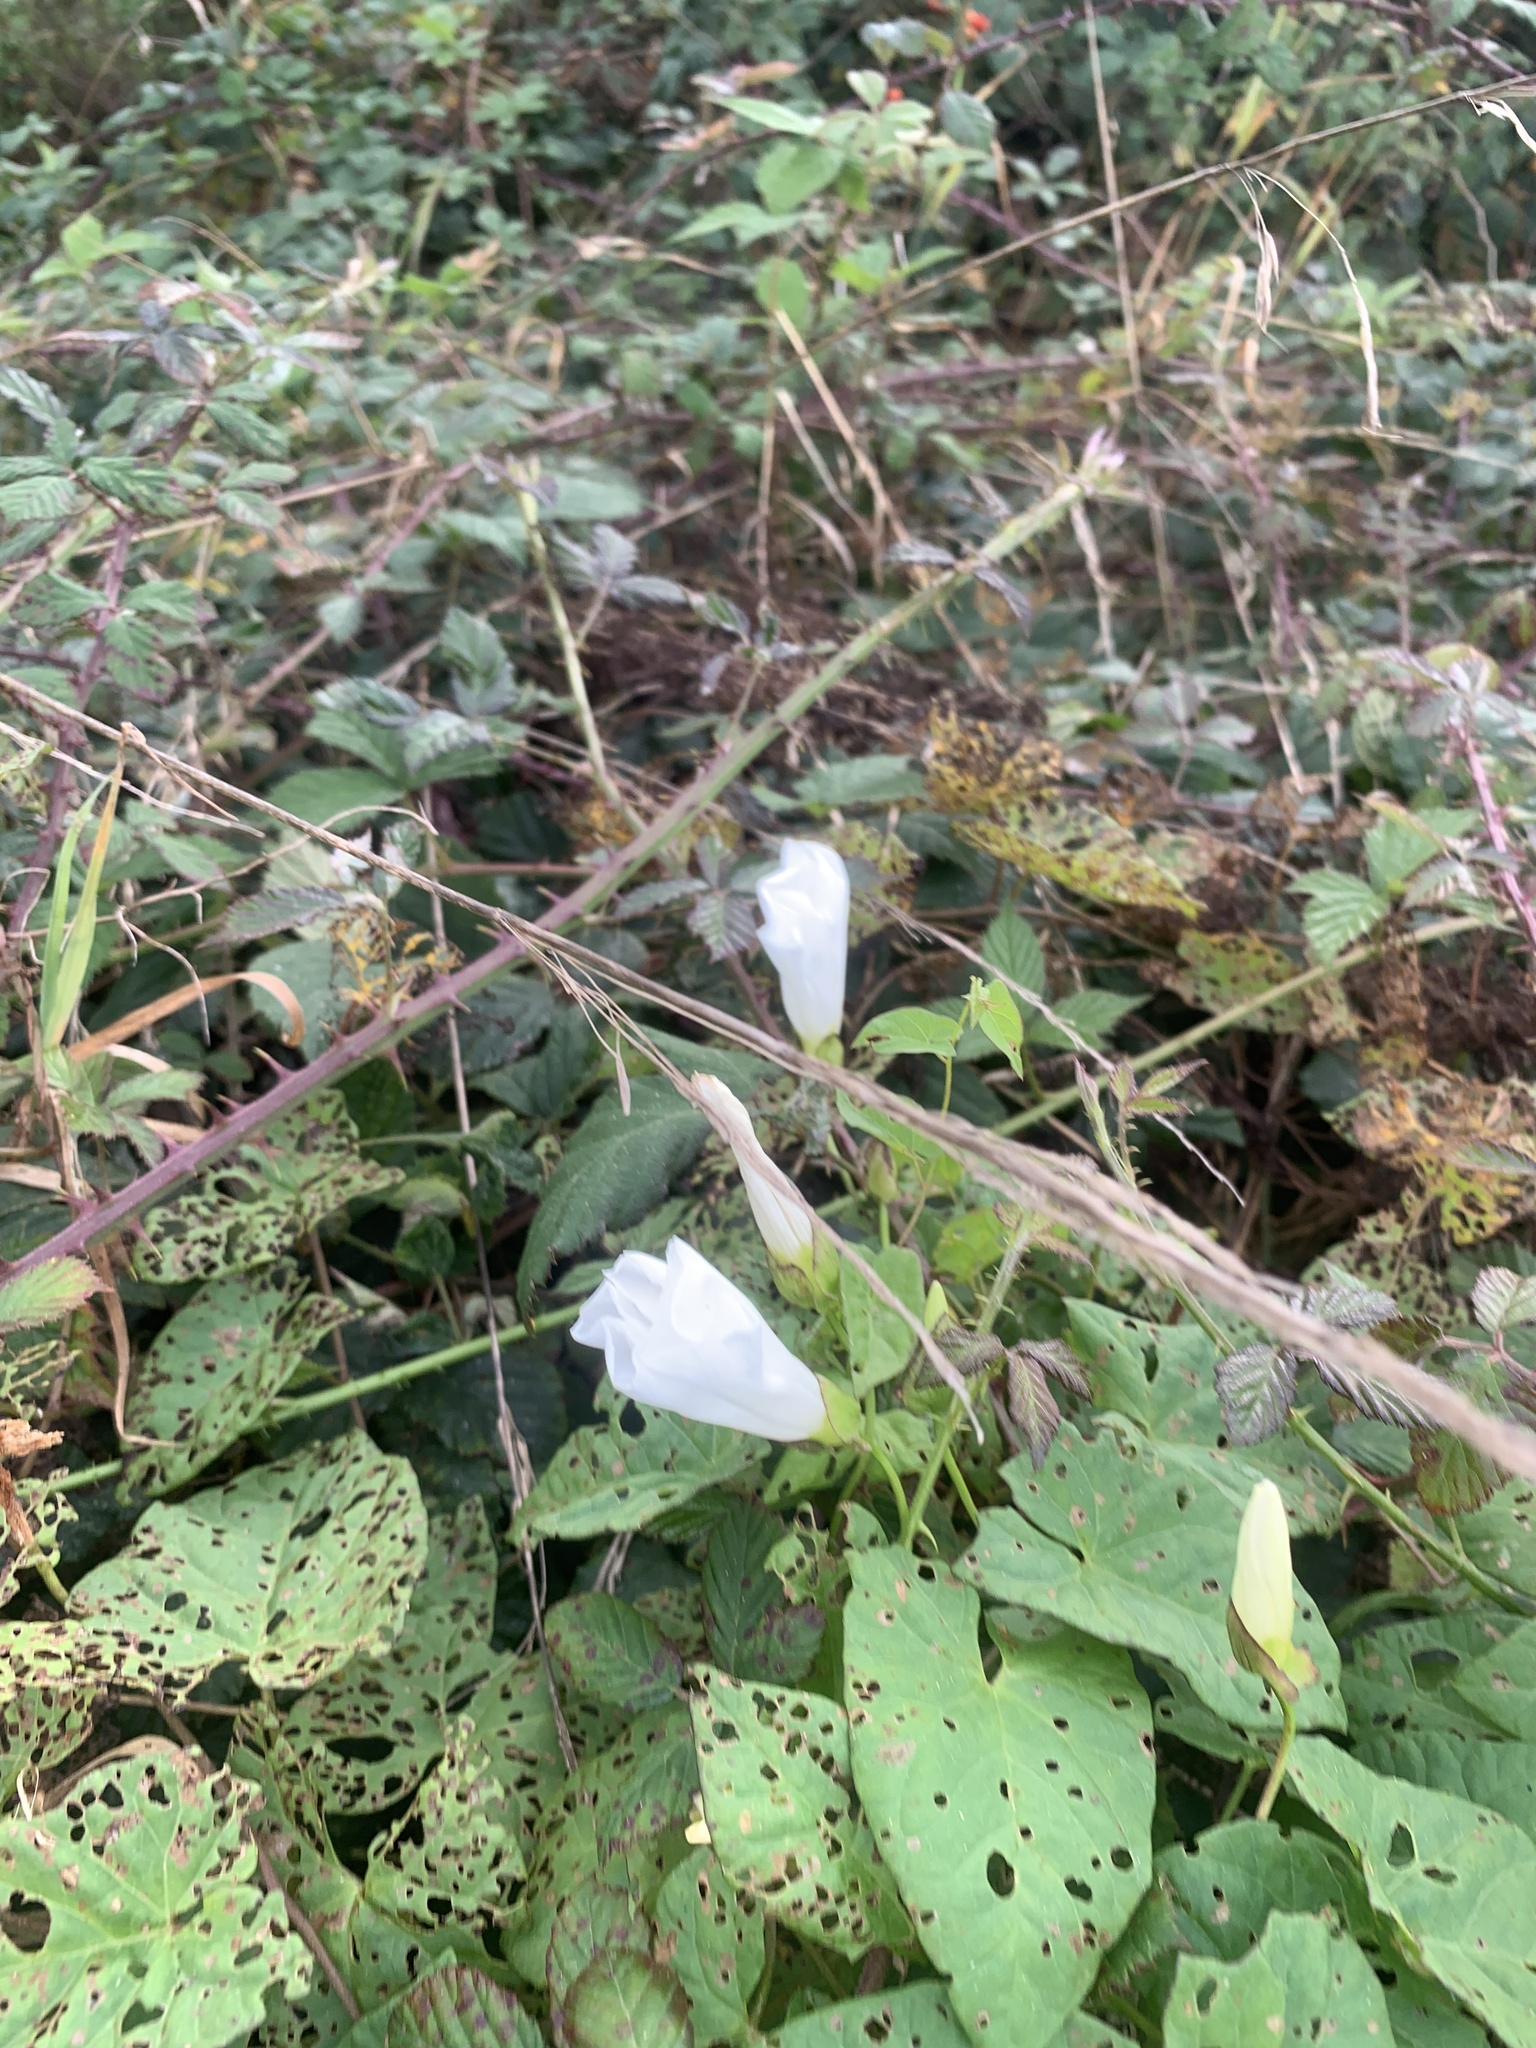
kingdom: Plantae
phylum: Tracheophyta
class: Magnoliopsida
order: Solanales
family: Convolvulaceae
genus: Calystegia
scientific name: Calystegia silvatica
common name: Large bindweed
